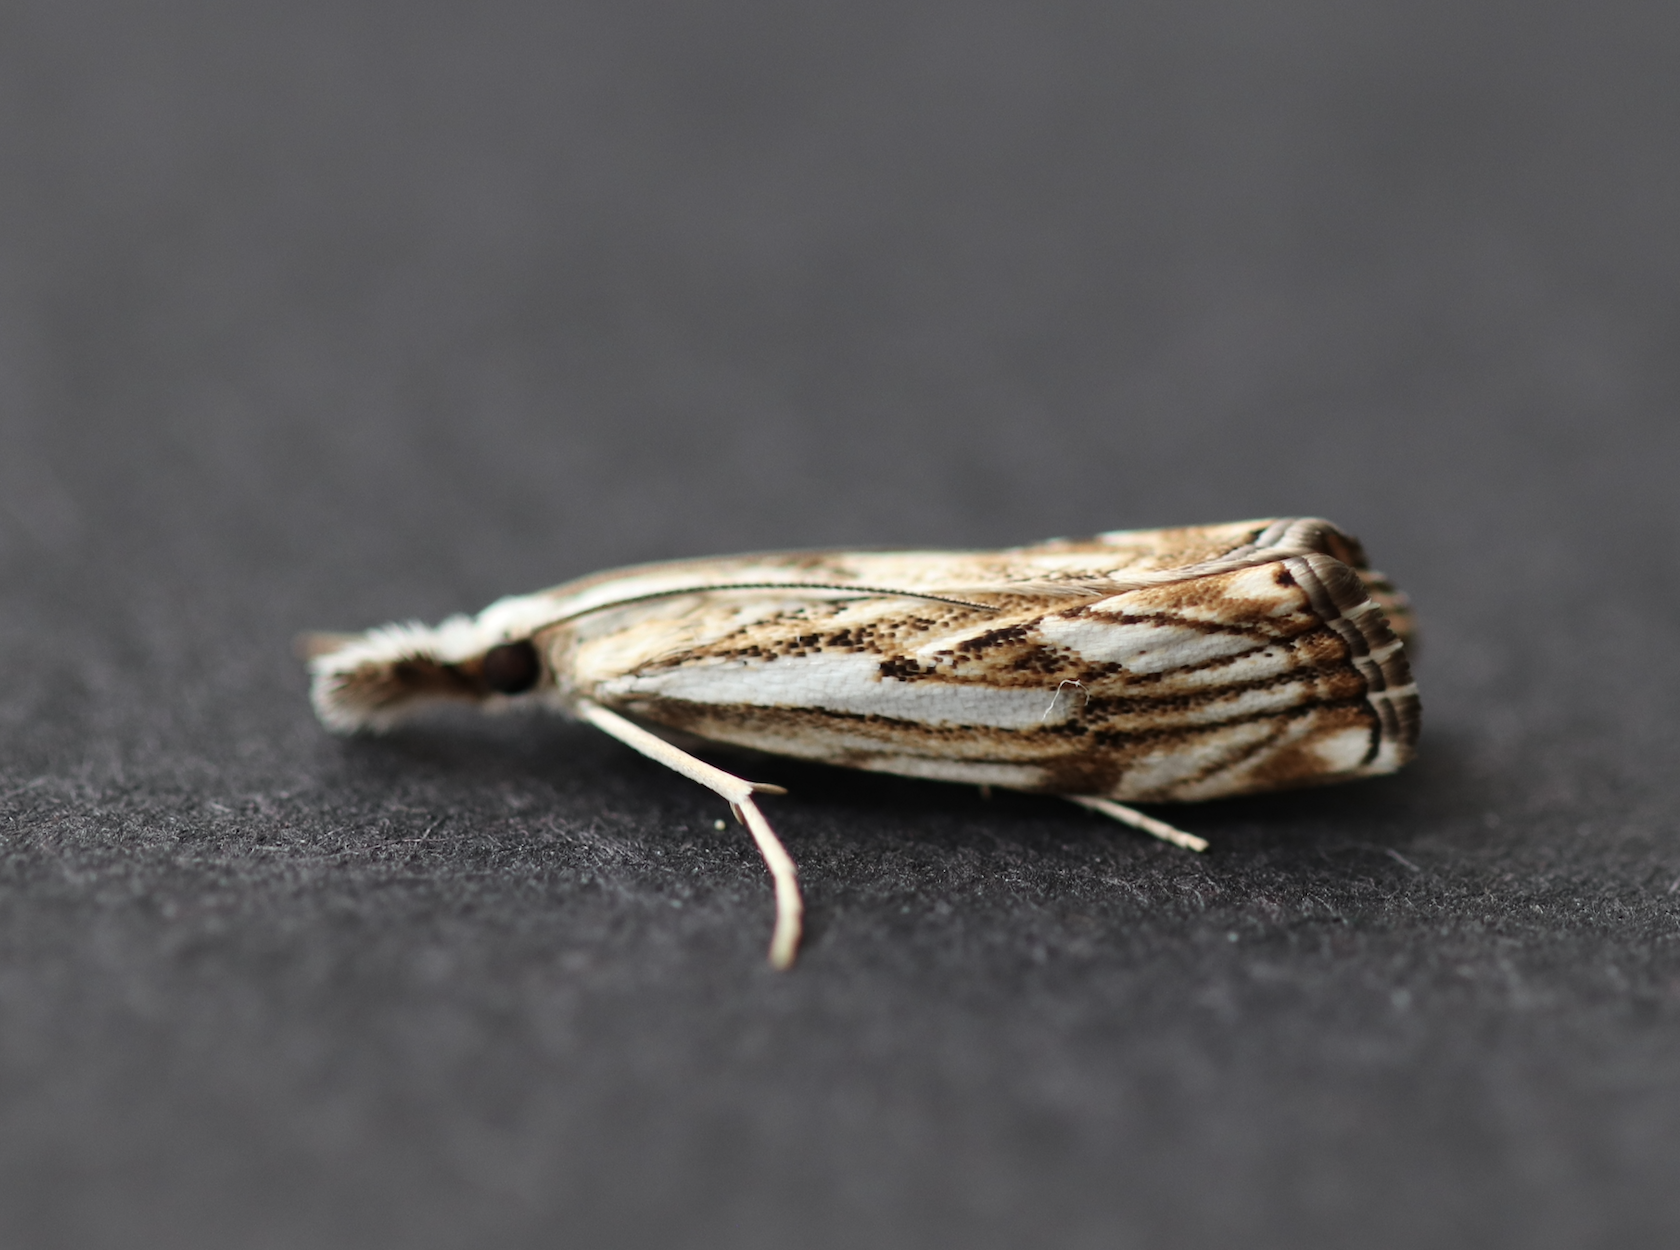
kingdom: Animalia
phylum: Arthropoda
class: Insecta
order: Lepidoptera
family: Crambidae
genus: Catoptria
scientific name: Catoptria falsella
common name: Chequered grass-veneer
